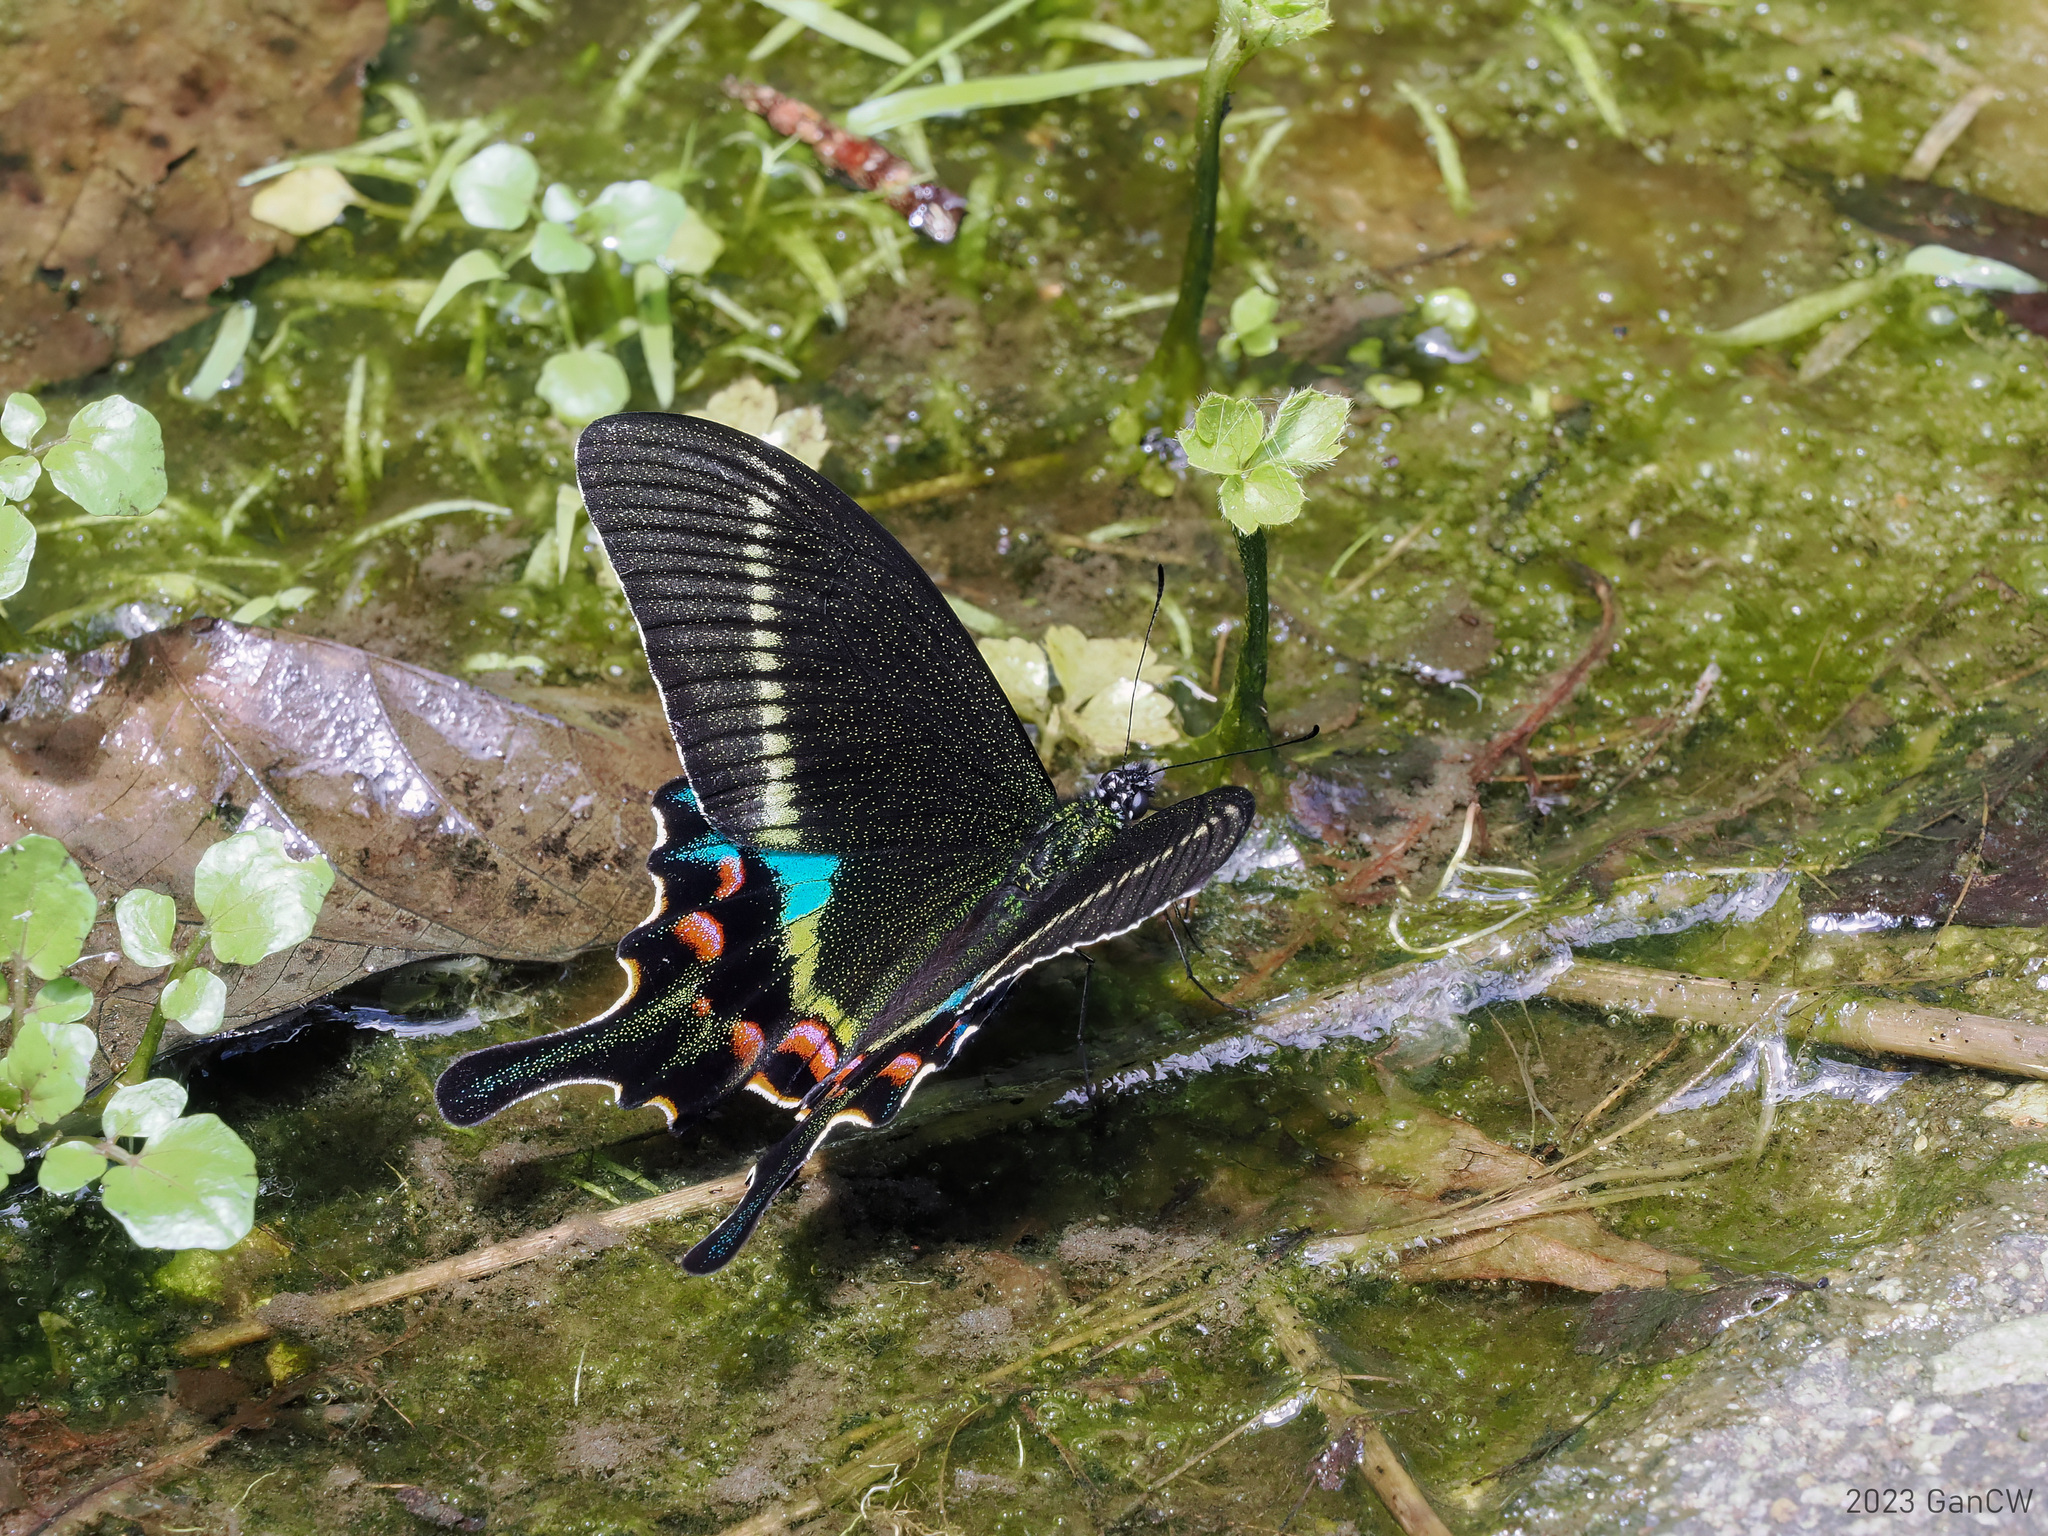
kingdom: Animalia
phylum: Arthropoda
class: Insecta
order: Lepidoptera
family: Papilionidae
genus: Papilio
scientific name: Papilio krishna
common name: Krishna peacock
